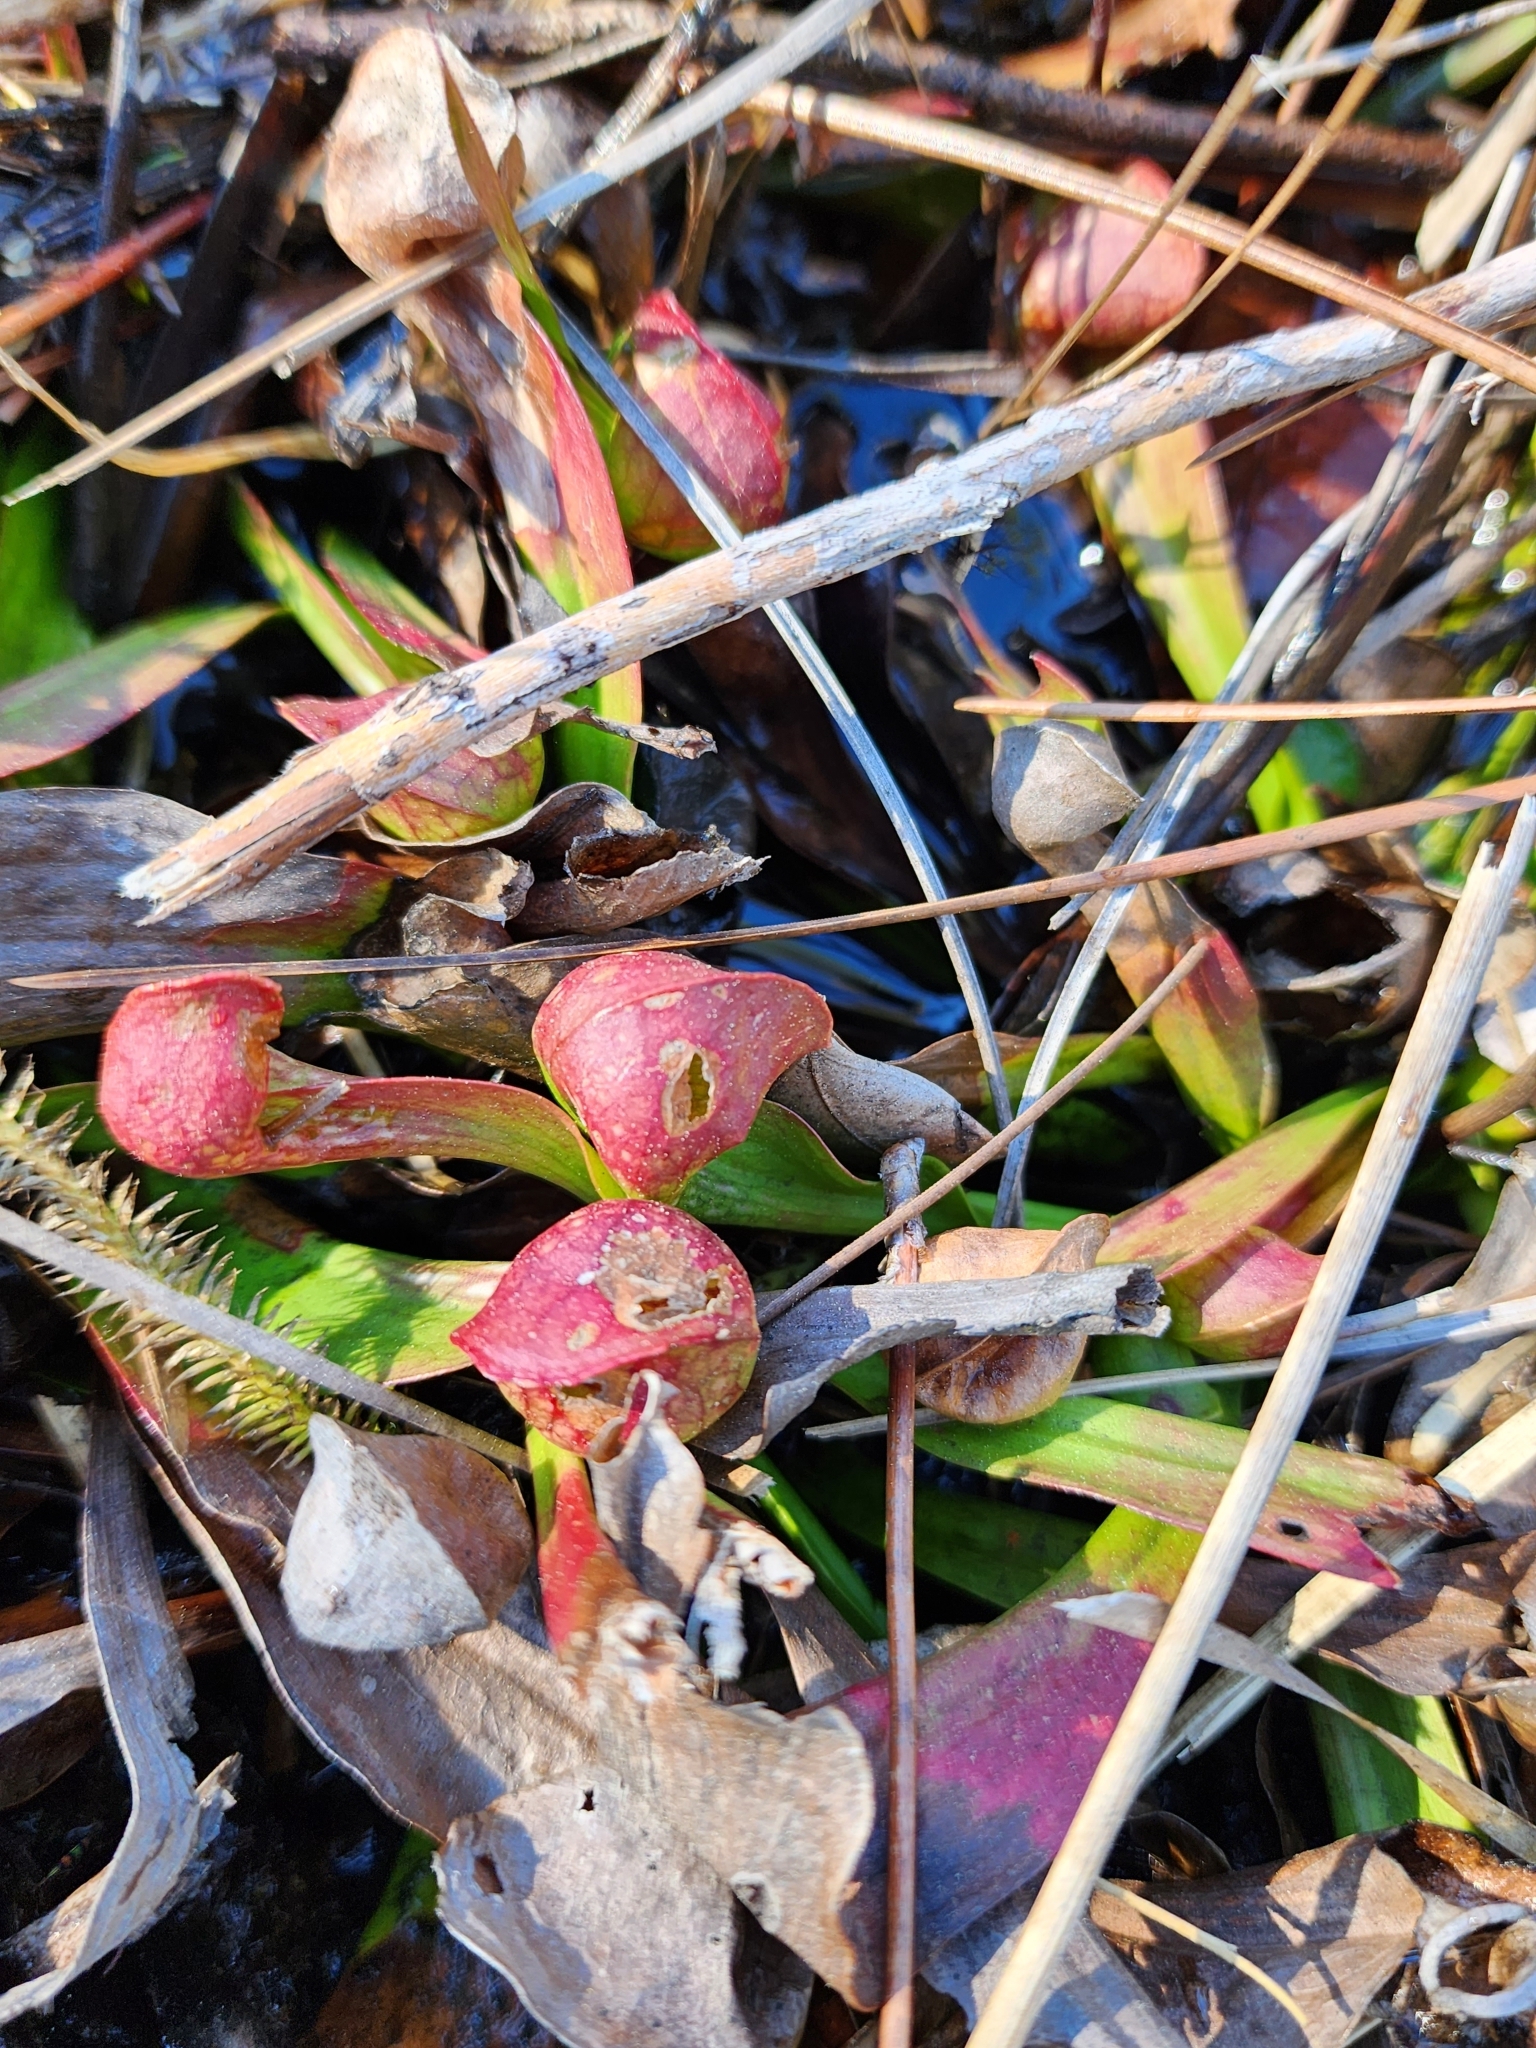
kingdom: Plantae
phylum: Tracheophyta
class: Magnoliopsida
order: Ericales
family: Sarraceniaceae
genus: Sarracenia
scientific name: Sarracenia psittacina
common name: Parrot pitcherplant
